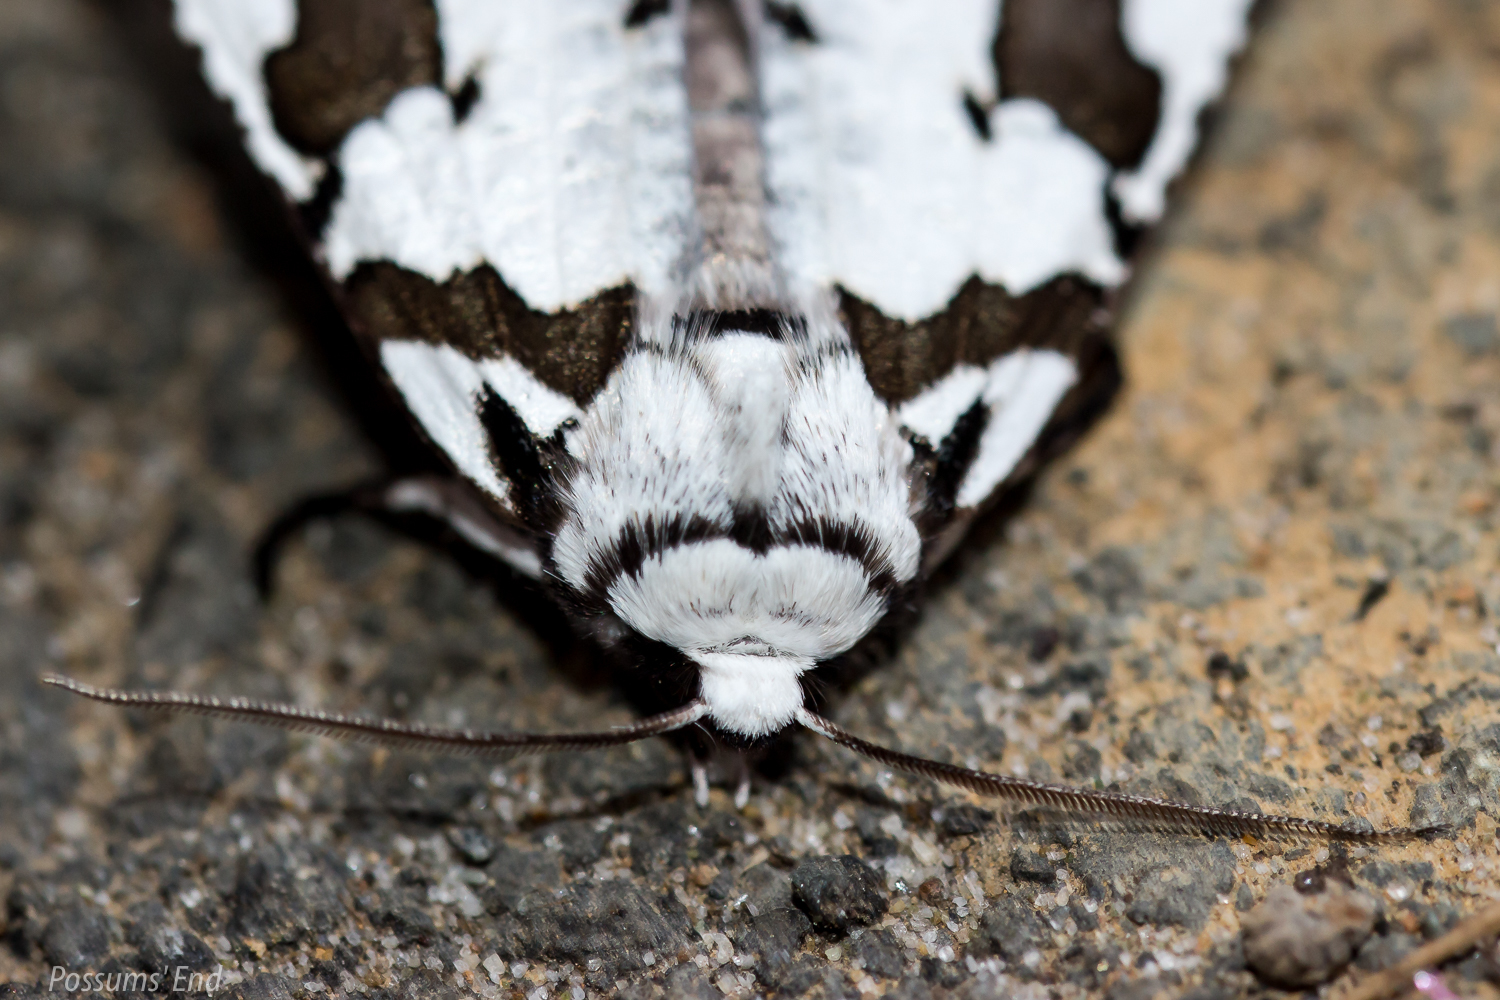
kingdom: Animalia
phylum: Arthropoda
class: Insecta
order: Lepidoptera
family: Geometridae
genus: Declana
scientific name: Declana
